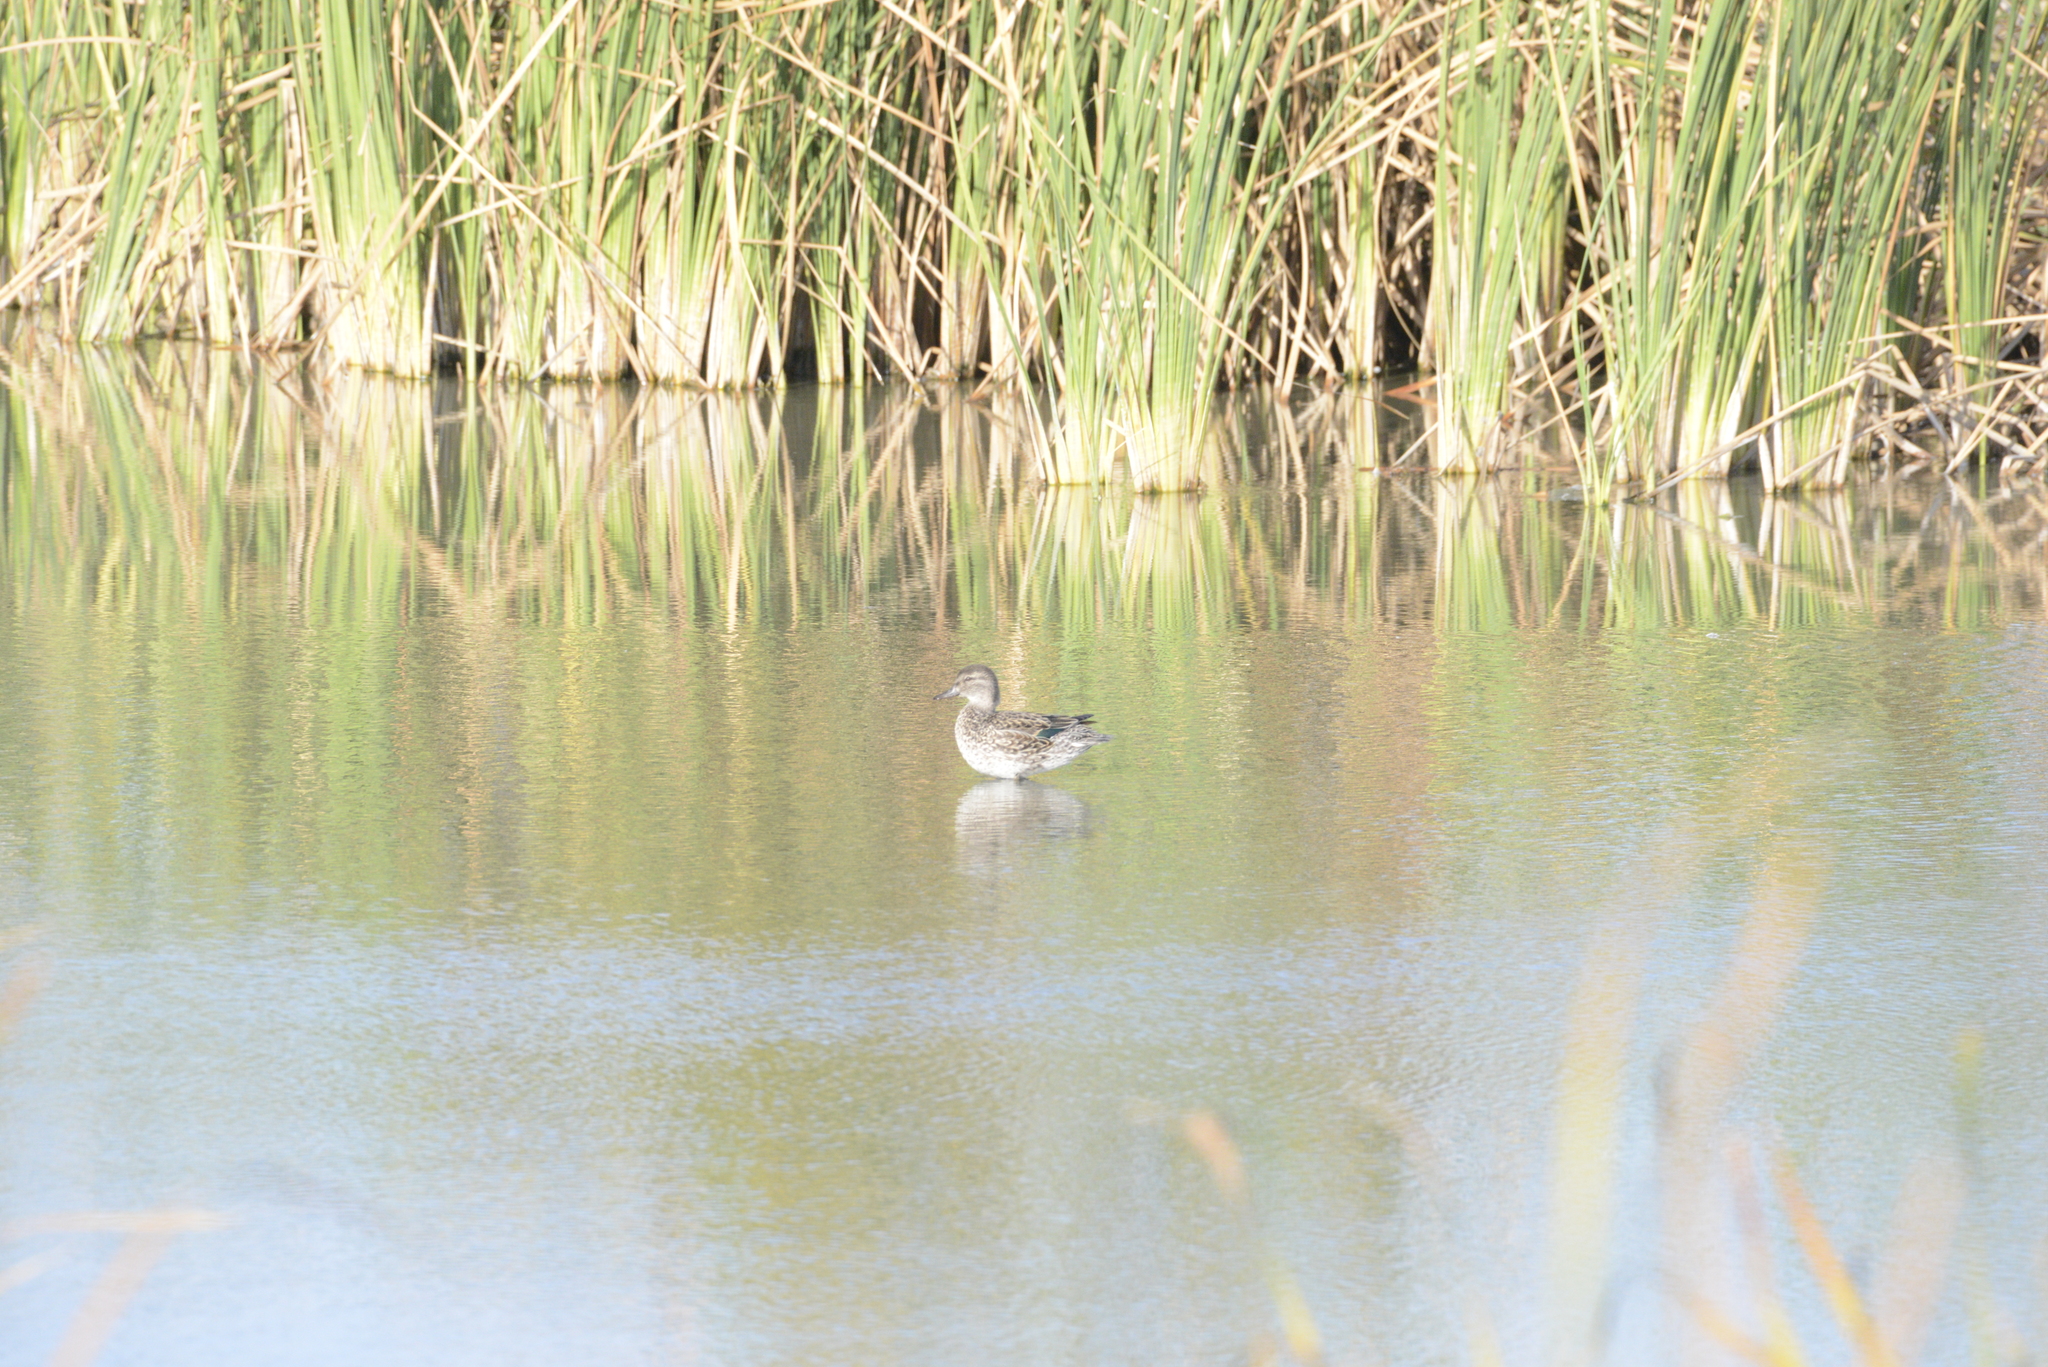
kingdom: Animalia
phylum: Chordata
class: Aves
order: Anseriformes
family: Anatidae
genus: Anas
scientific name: Anas crecca
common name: Eurasian teal
